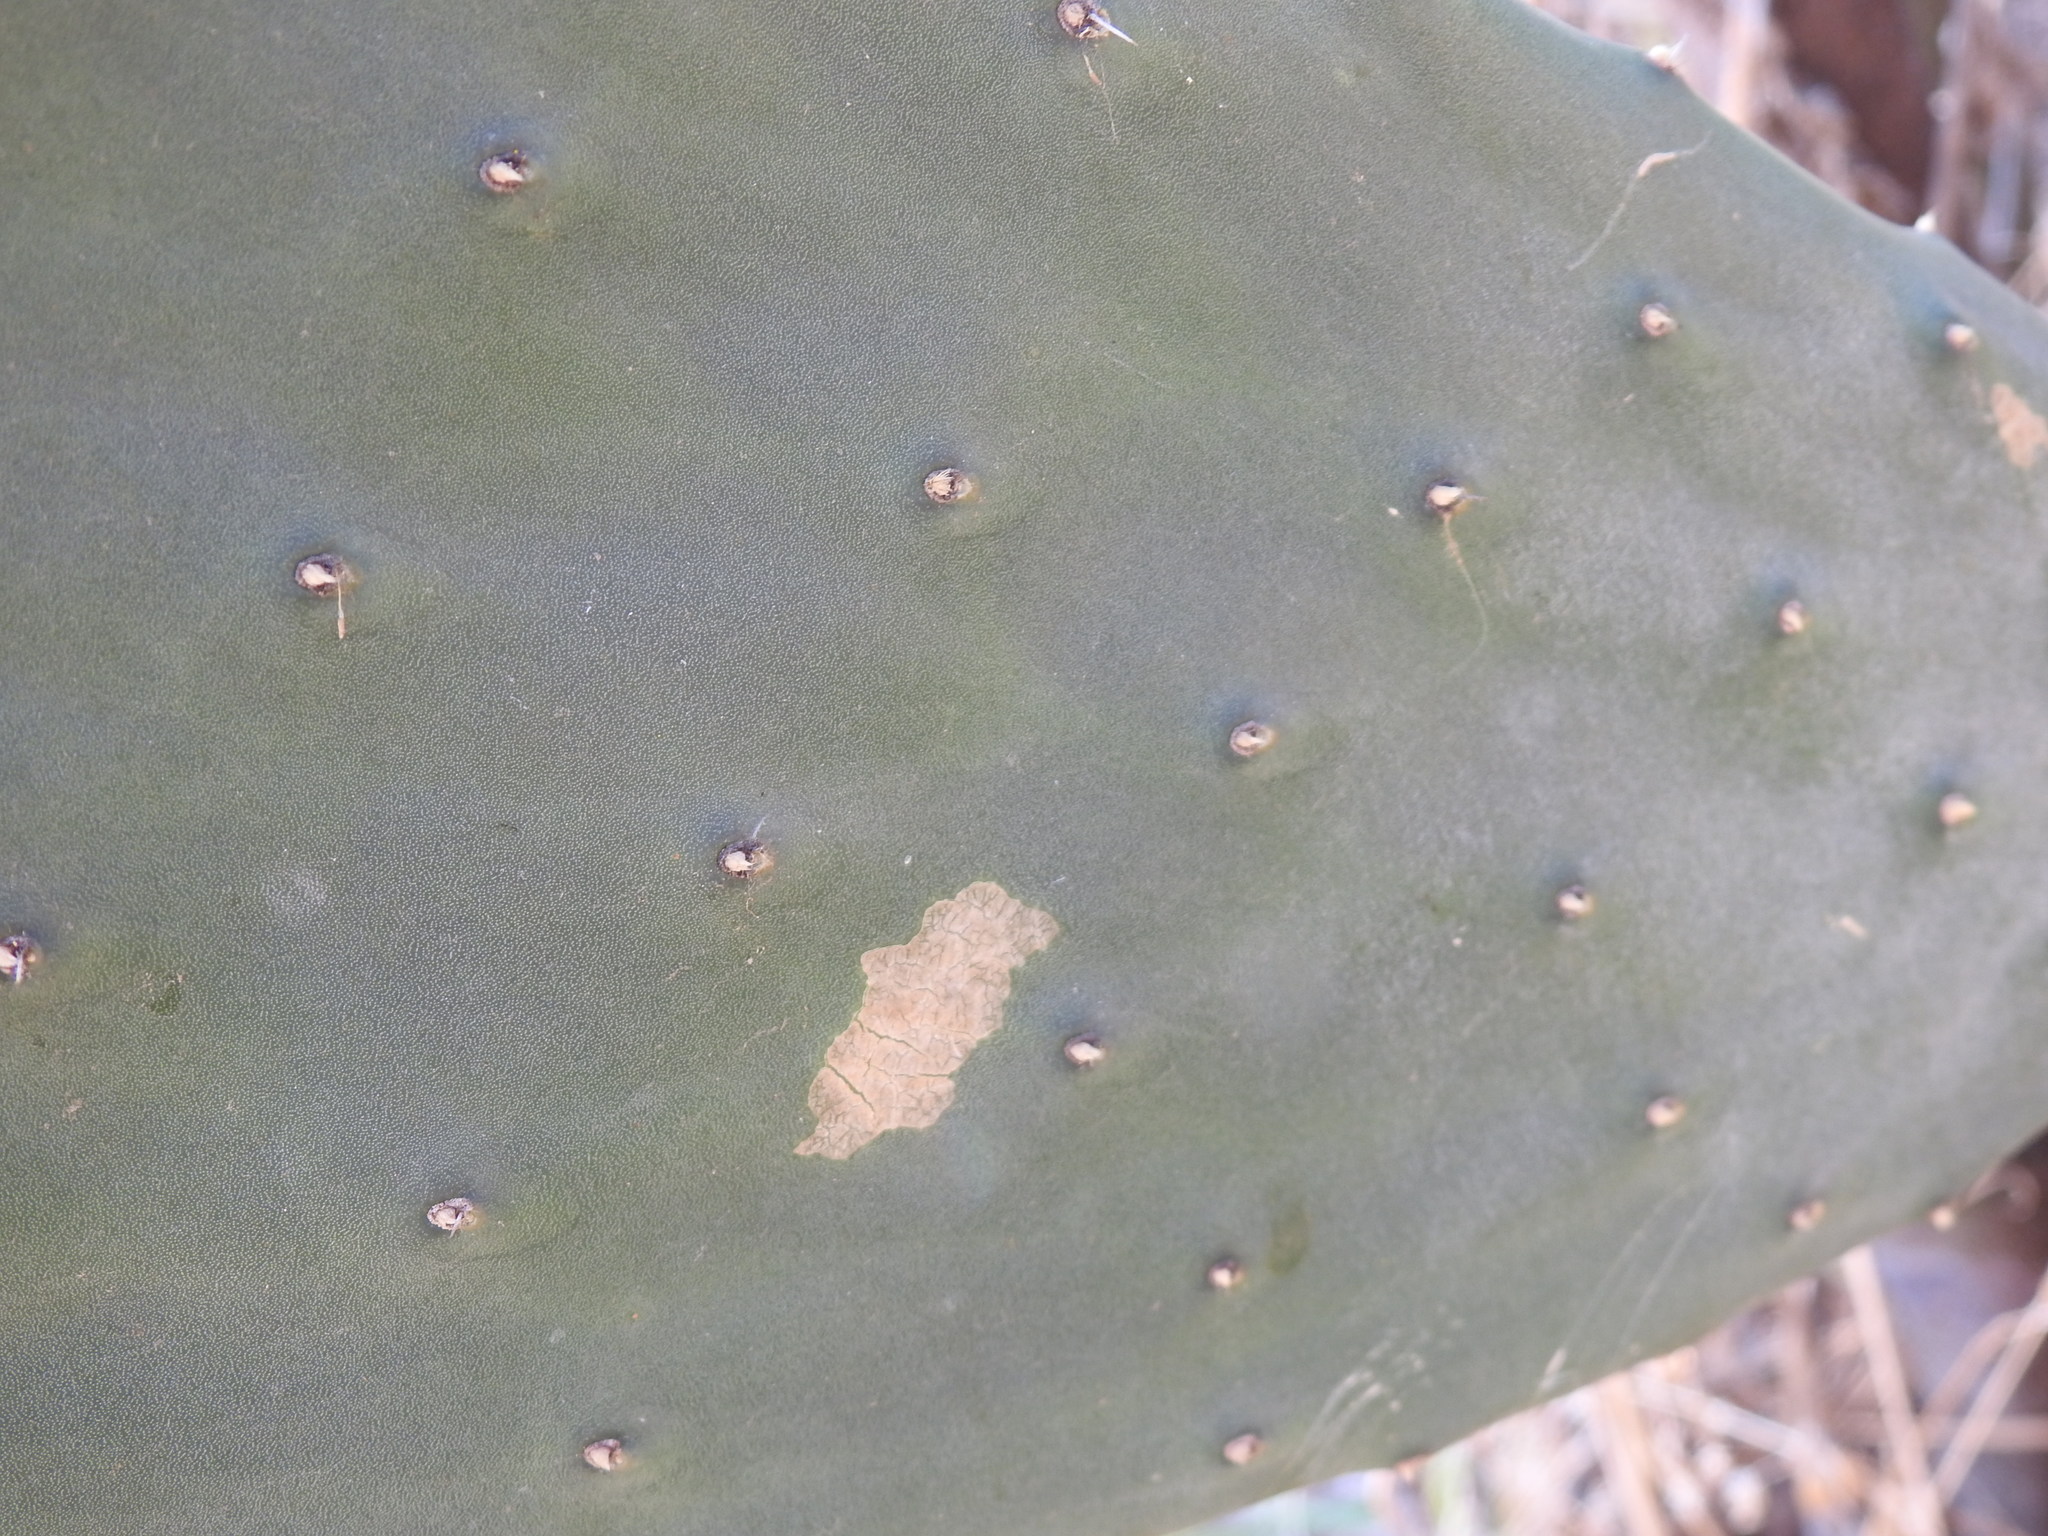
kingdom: Plantae
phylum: Tracheophyta
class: Magnoliopsida
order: Caryophyllales
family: Cactaceae
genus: Opuntia
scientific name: Opuntia ficus-indica
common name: Barbary fig
